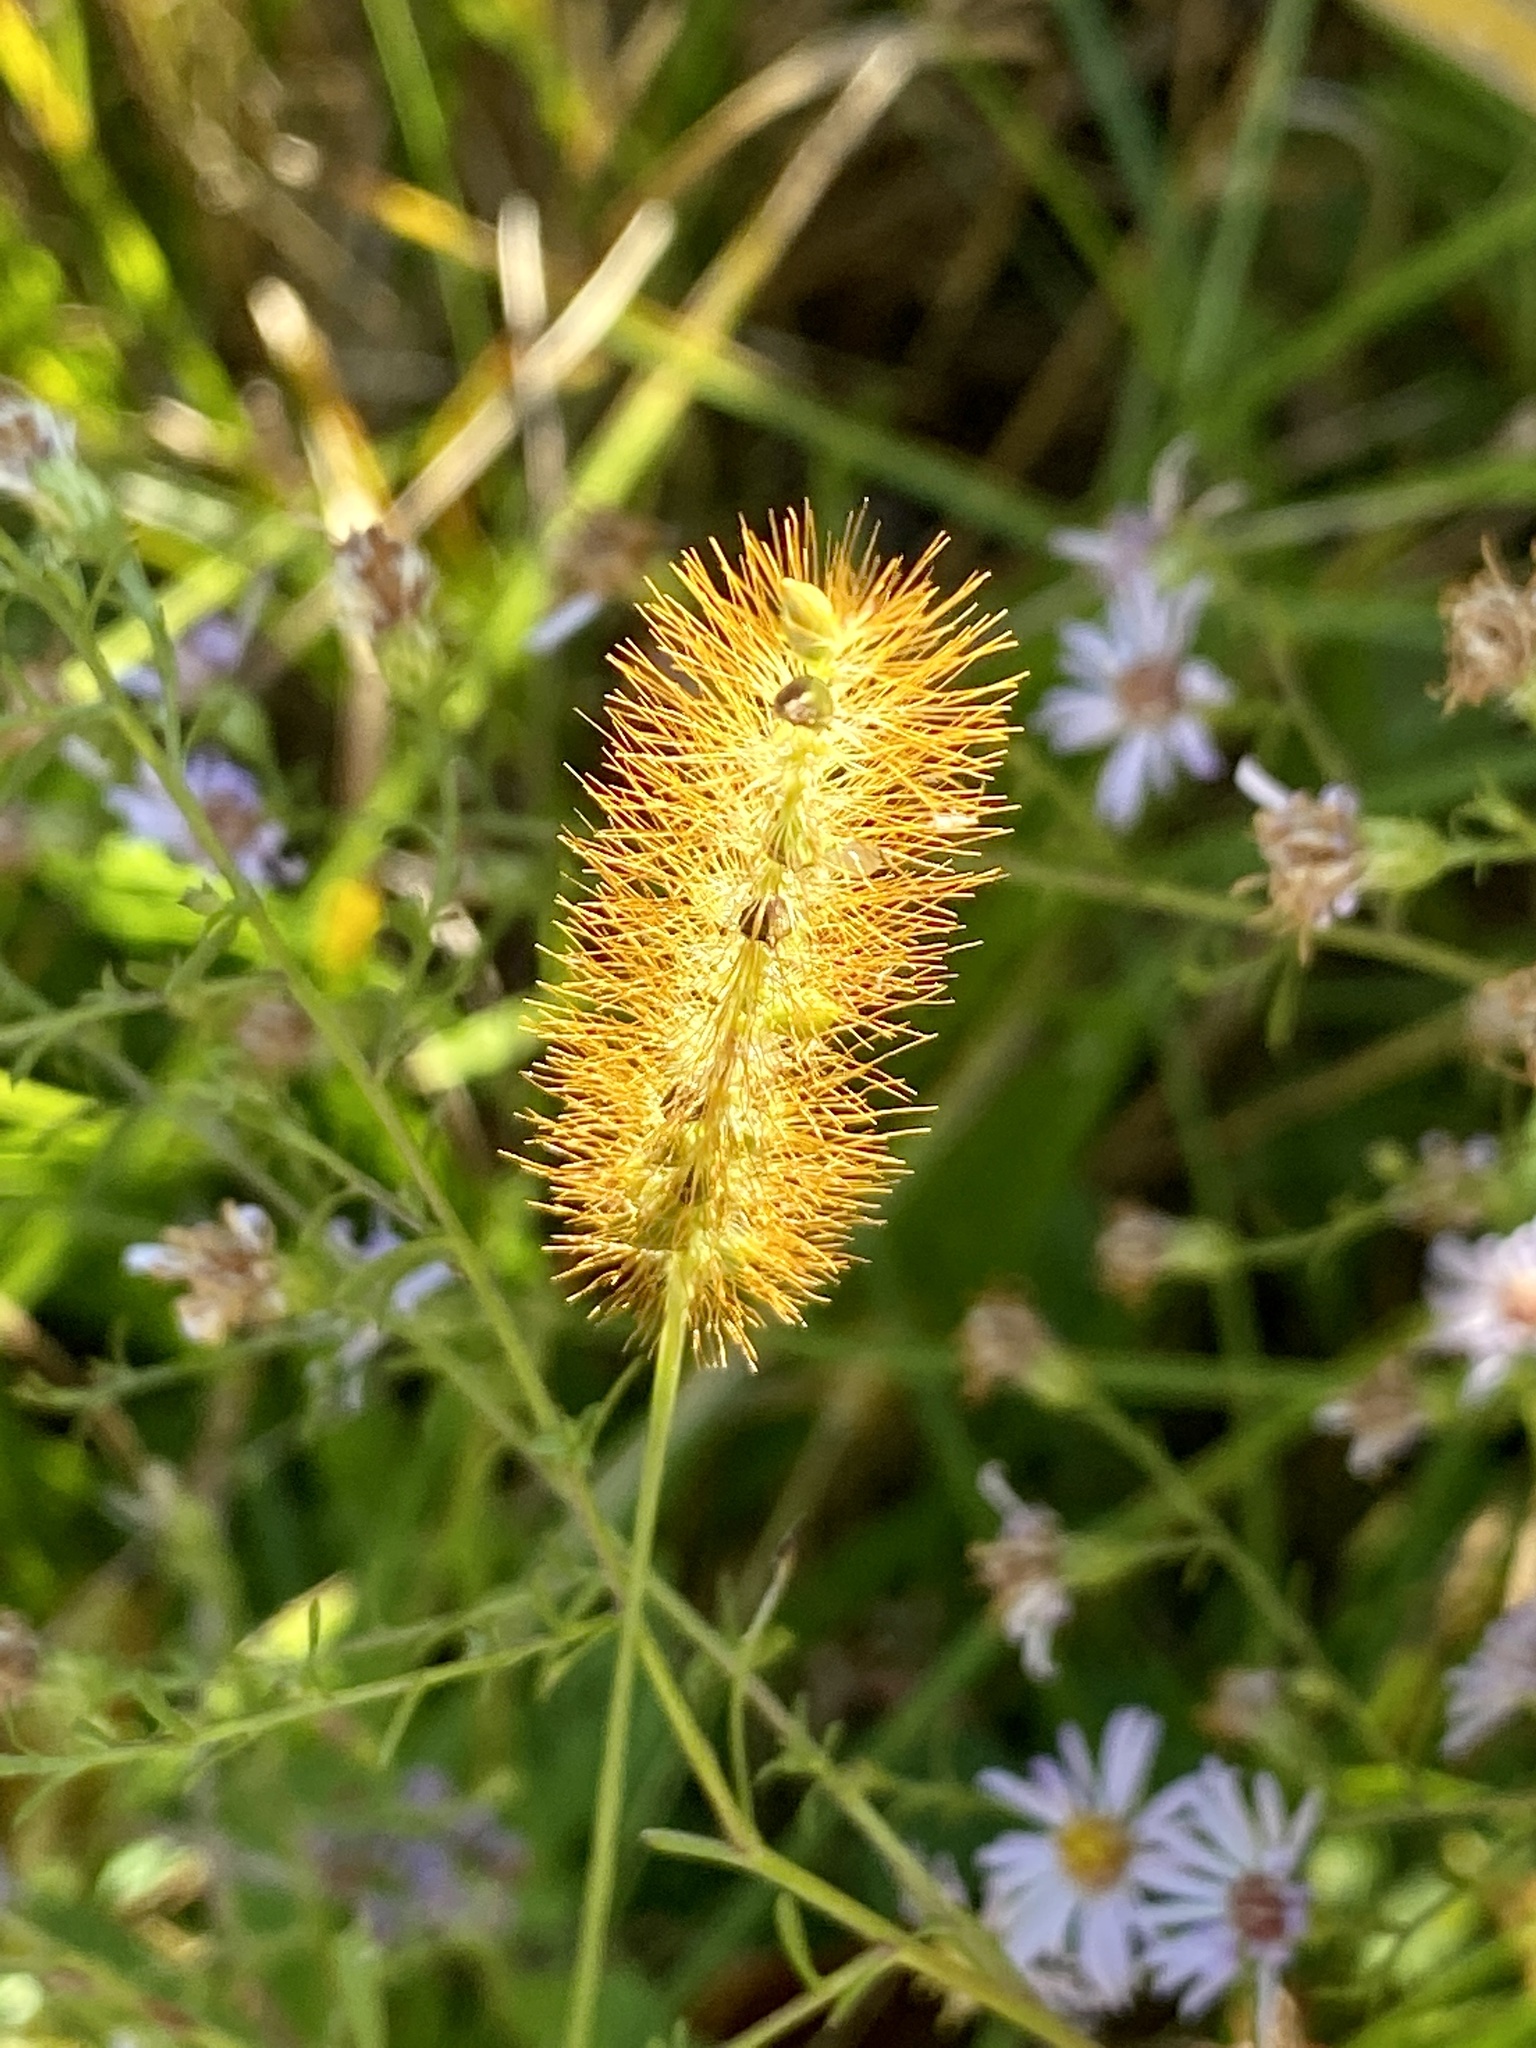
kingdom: Plantae
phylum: Tracheophyta
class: Liliopsida
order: Poales
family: Poaceae
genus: Setaria
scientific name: Setaria pumila
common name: Yellow bristle-grass
